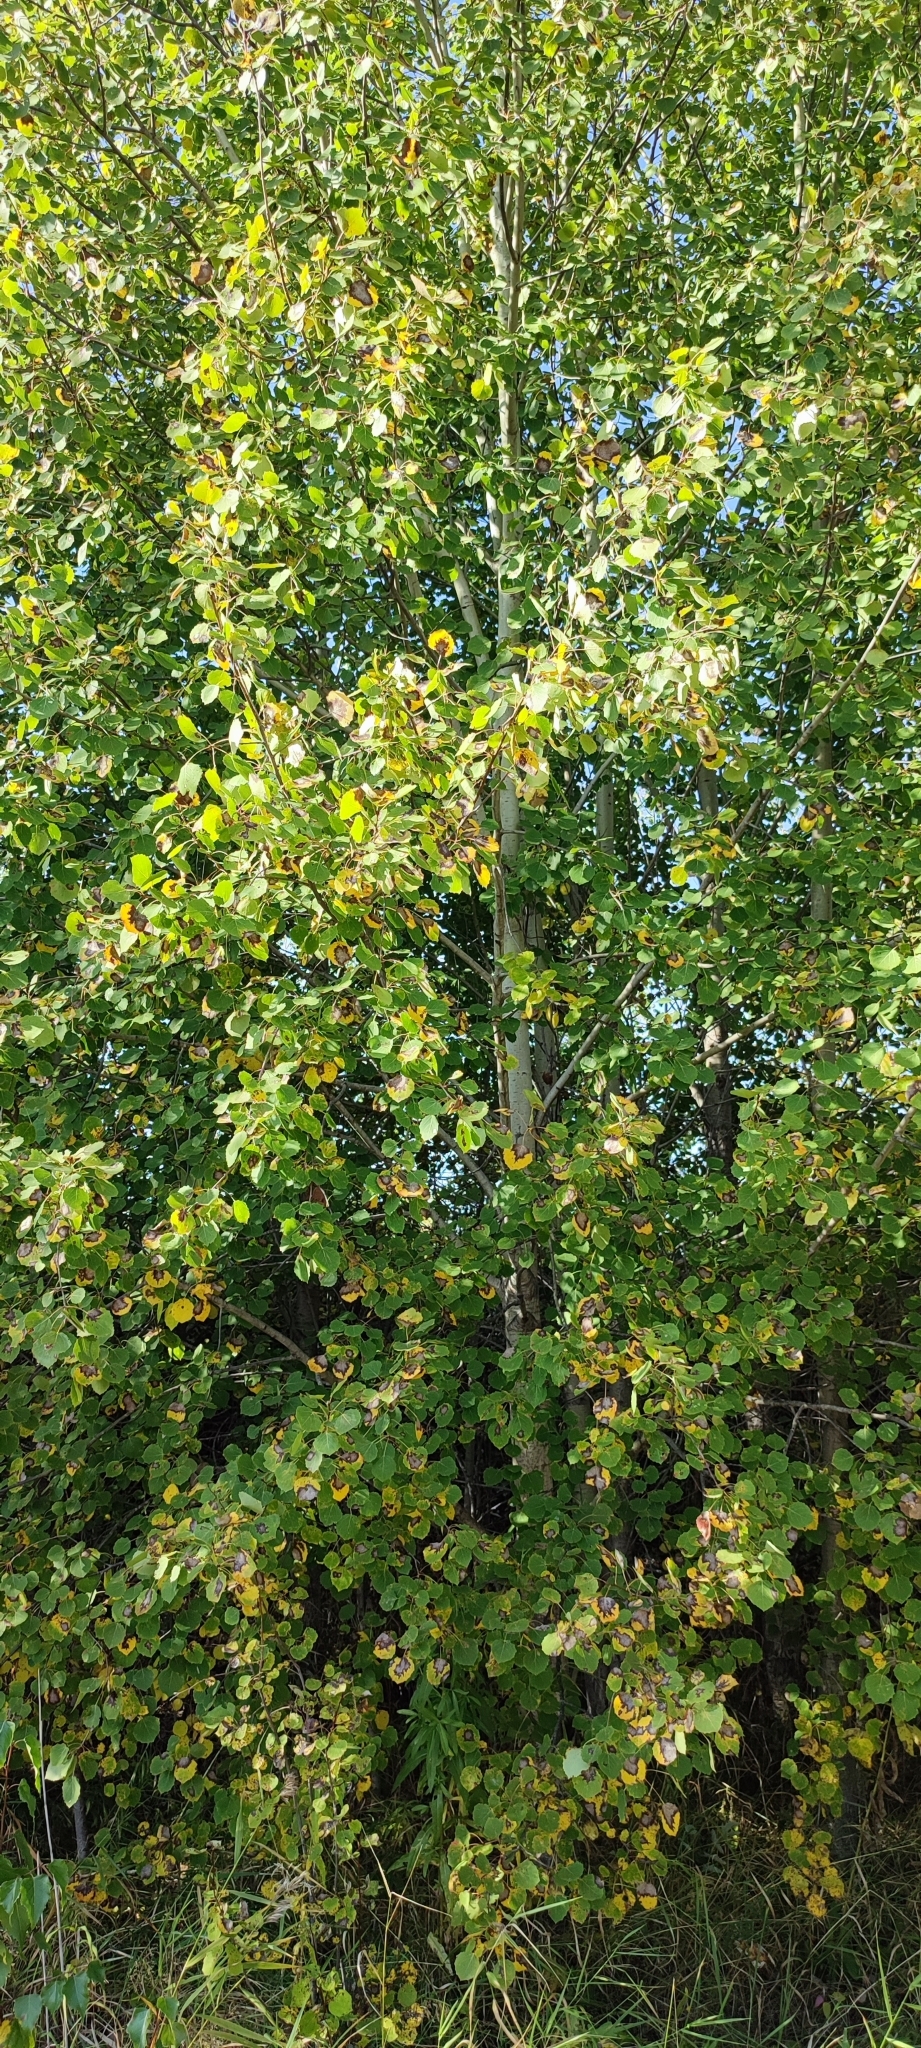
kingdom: Plantae
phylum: Tracheophyta
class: Magnoliopsida
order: Malpighiales
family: Salicaceae
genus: Populus
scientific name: Populus tremula
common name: European aspen
